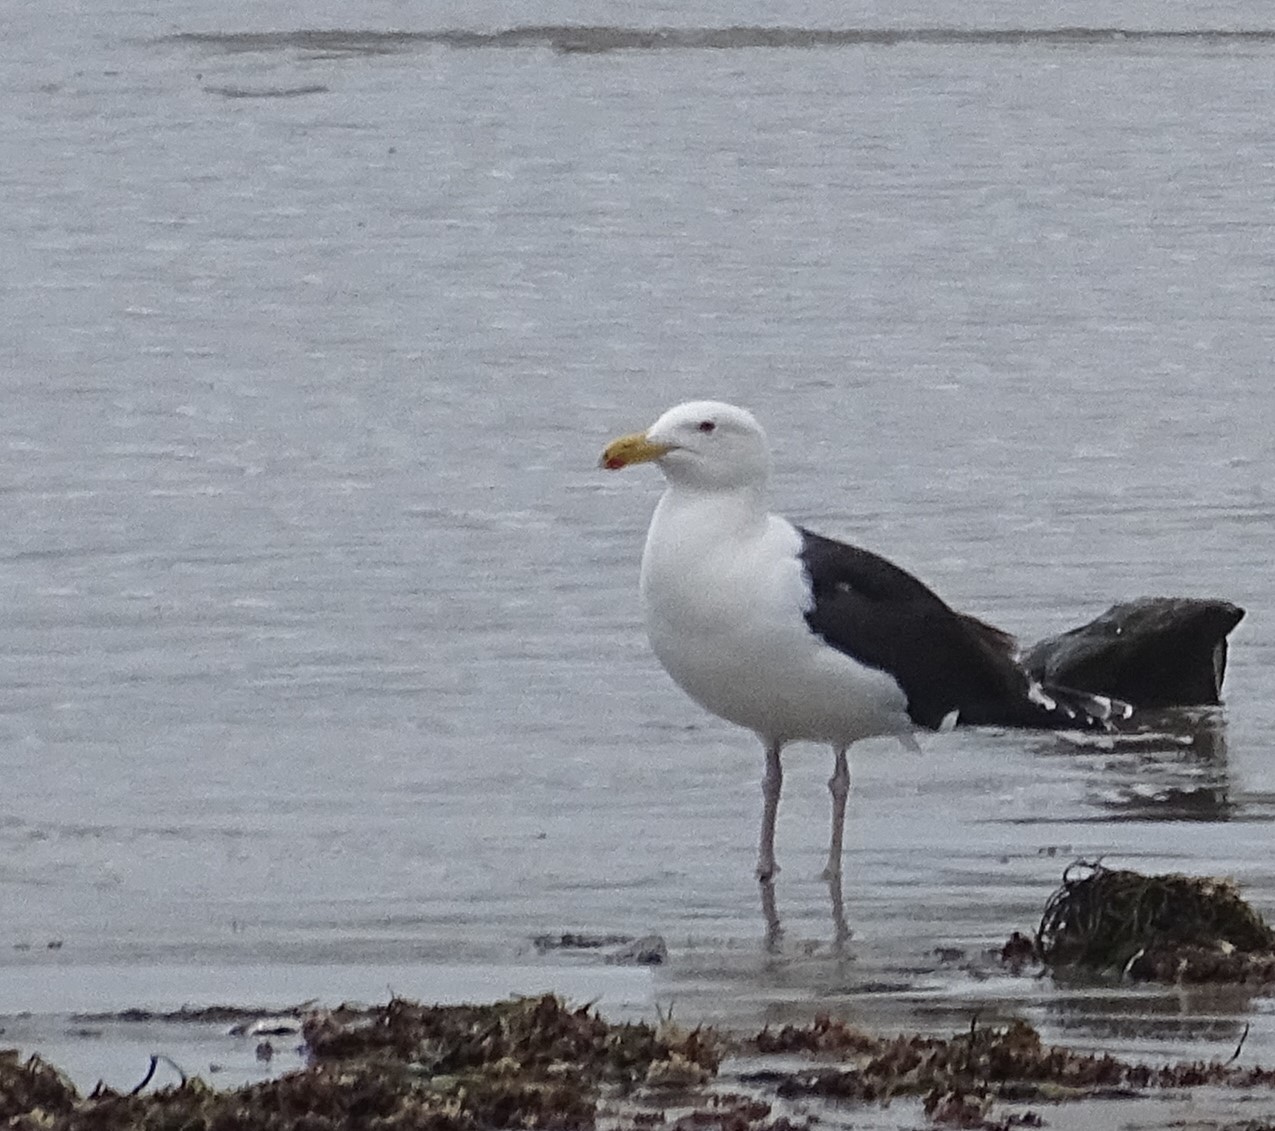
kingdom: Animalia
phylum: Chordata
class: Aves
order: Charadriiformes
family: Laridae
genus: Larus
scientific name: Larus marinus
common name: Great black-backed gull
